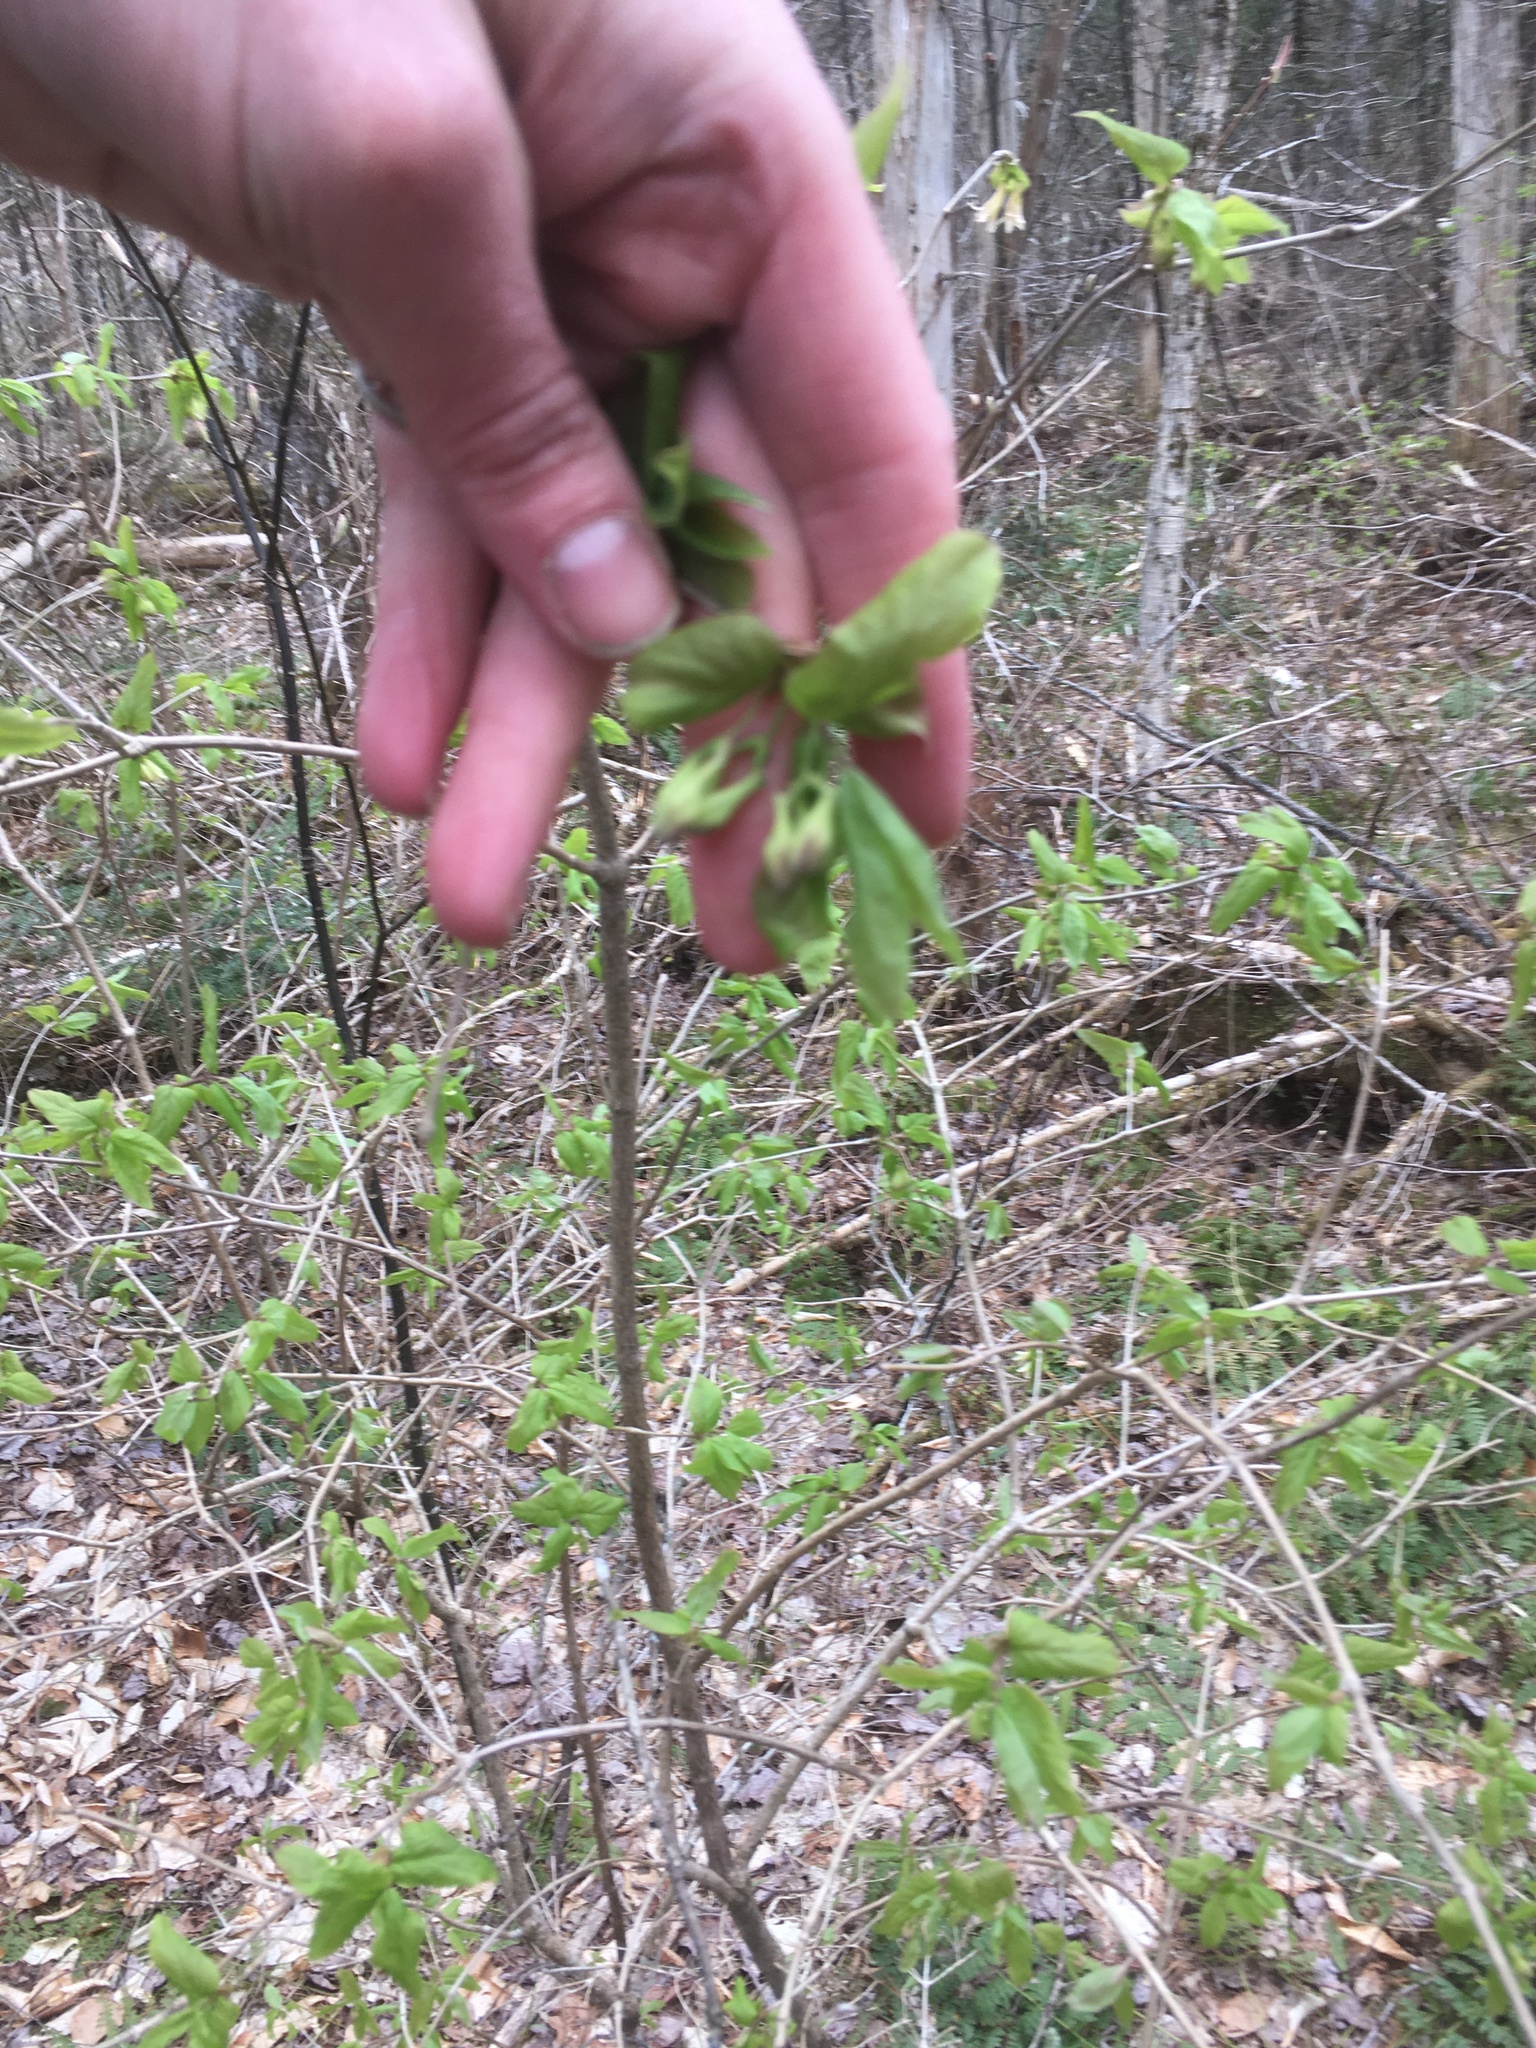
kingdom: Plantae
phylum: Tracheophyta
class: Magnoliopsida
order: Dipsacales
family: Caprifoliaceae
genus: Lonicera
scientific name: Lonicera canadensis
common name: American fly-honeysuckle
